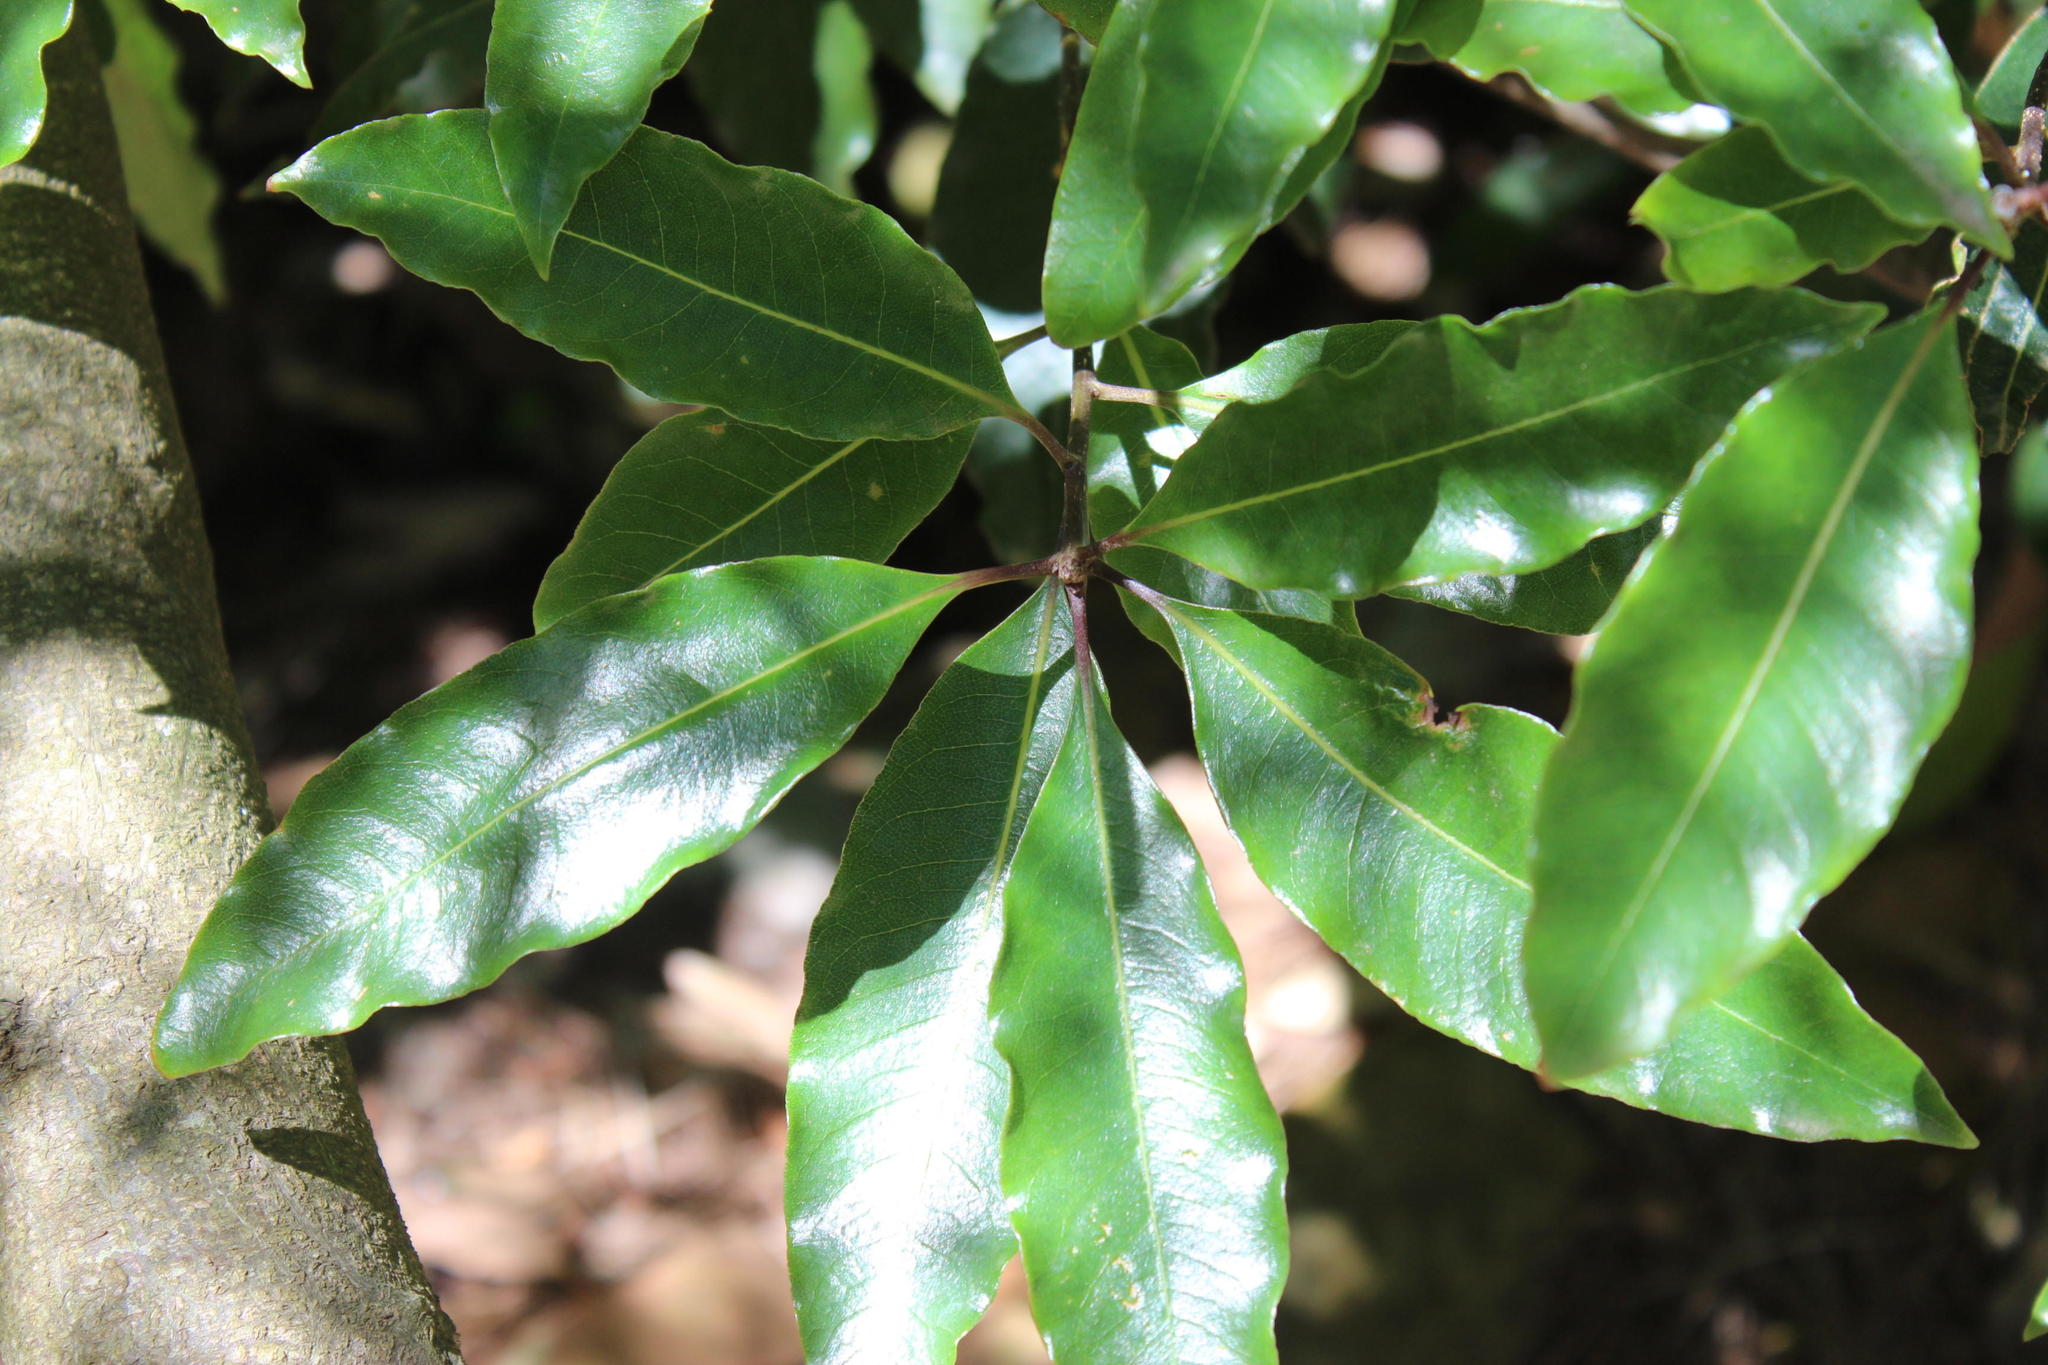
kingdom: Plantae
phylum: Tracheophyta
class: Magnoliopsida
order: Apiales
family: Pittosporaceae
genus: Pittosporum
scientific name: Pittosporum undulatum
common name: Australian cheesewood
